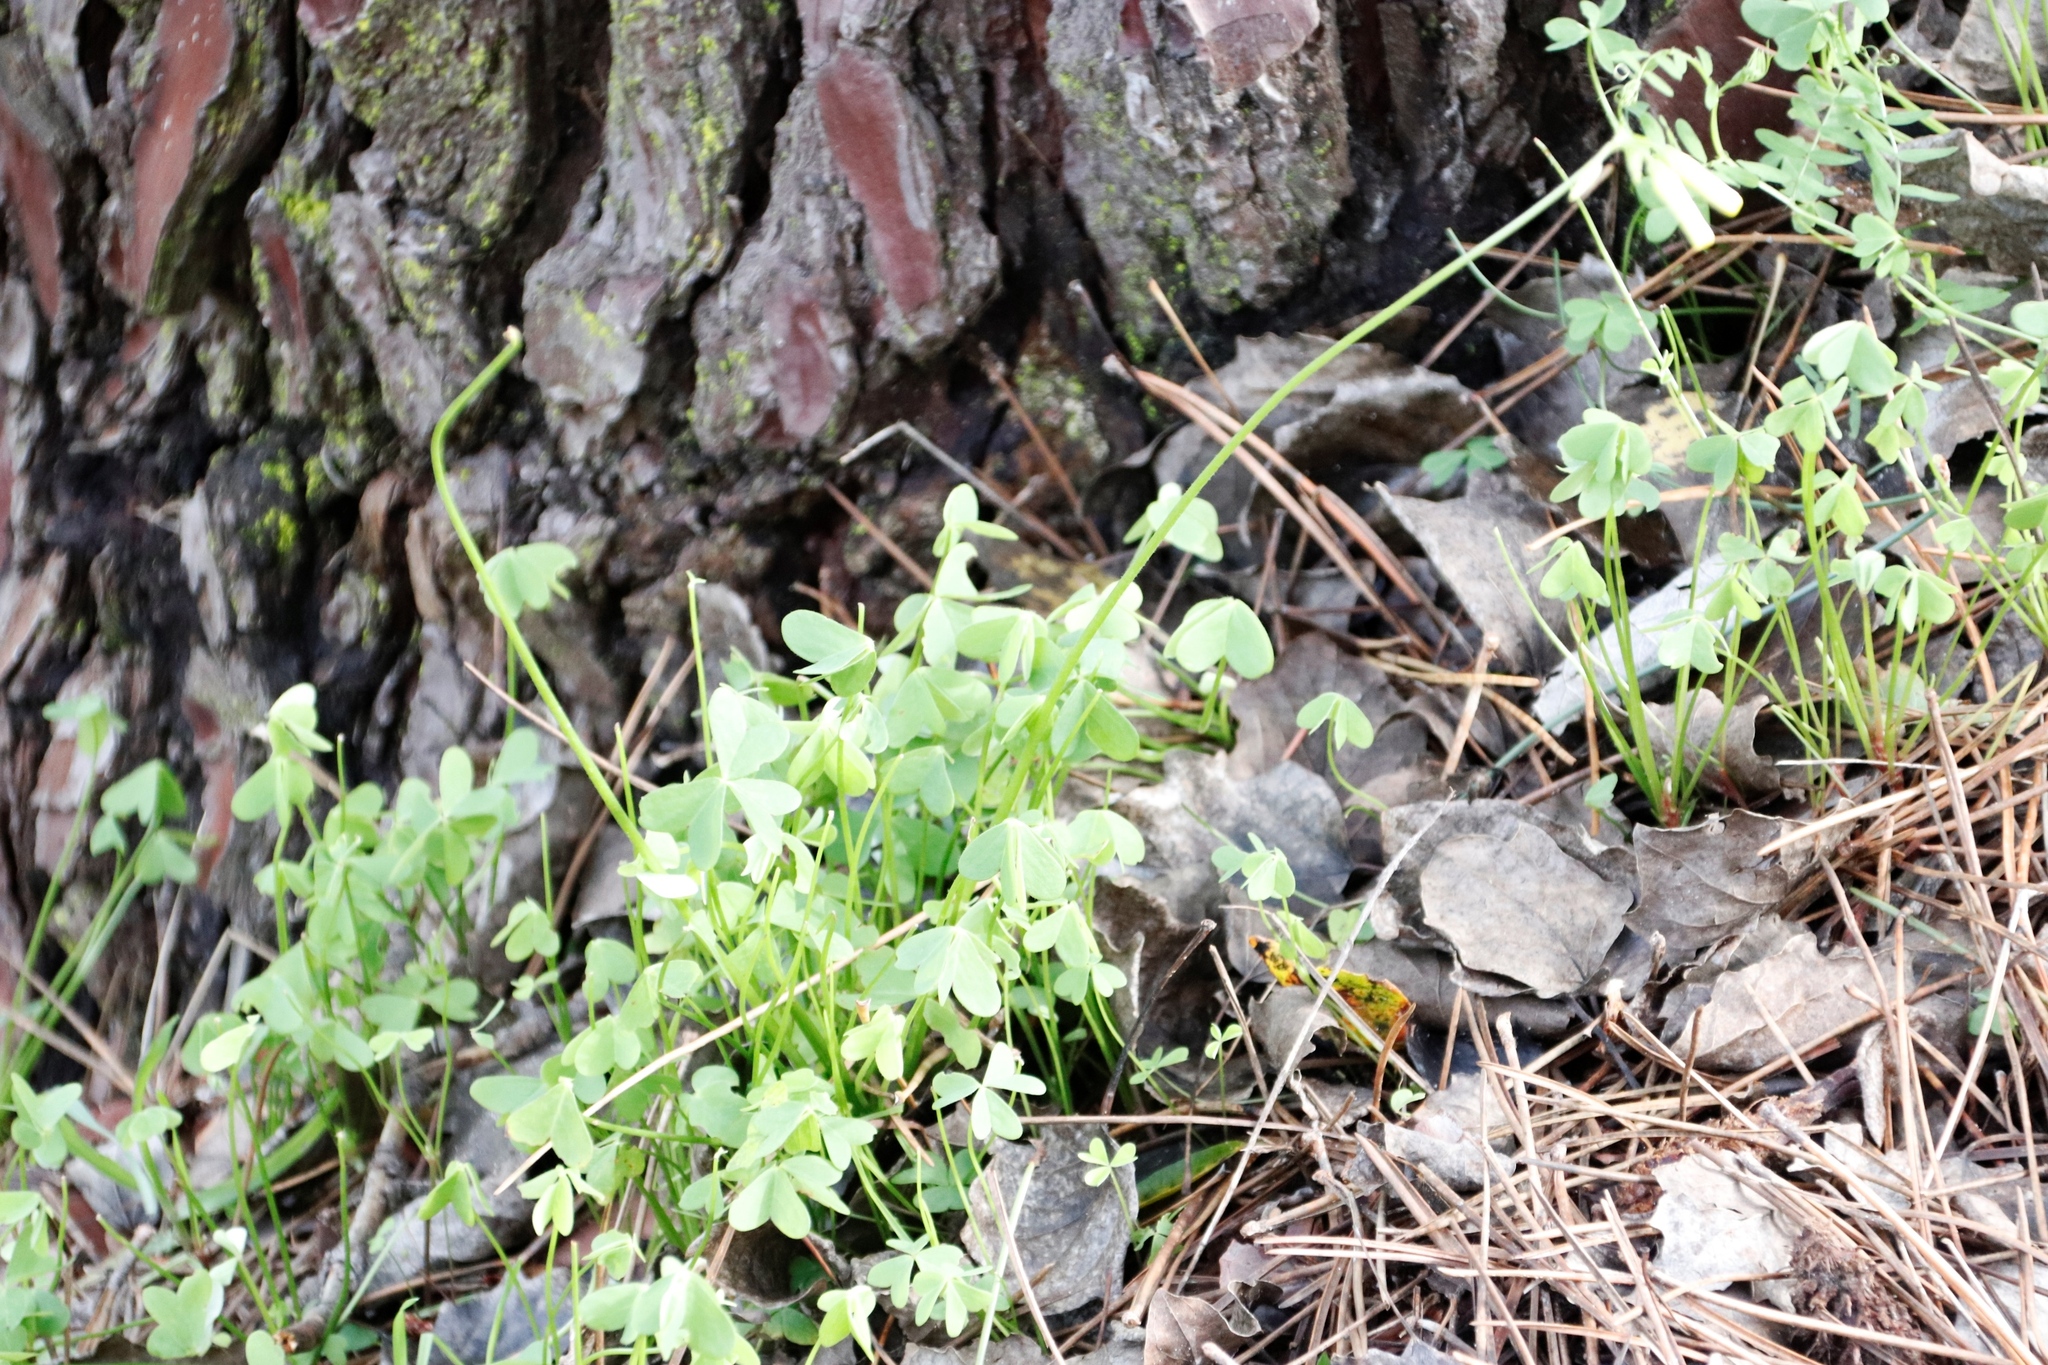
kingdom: Plantae
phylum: Tracheophyta
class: Magnoliopsida
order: Oxalidales
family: Oxalidaceae
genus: Oxalis
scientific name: Oxalis pes-caprae
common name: Bermuda-buttercup
